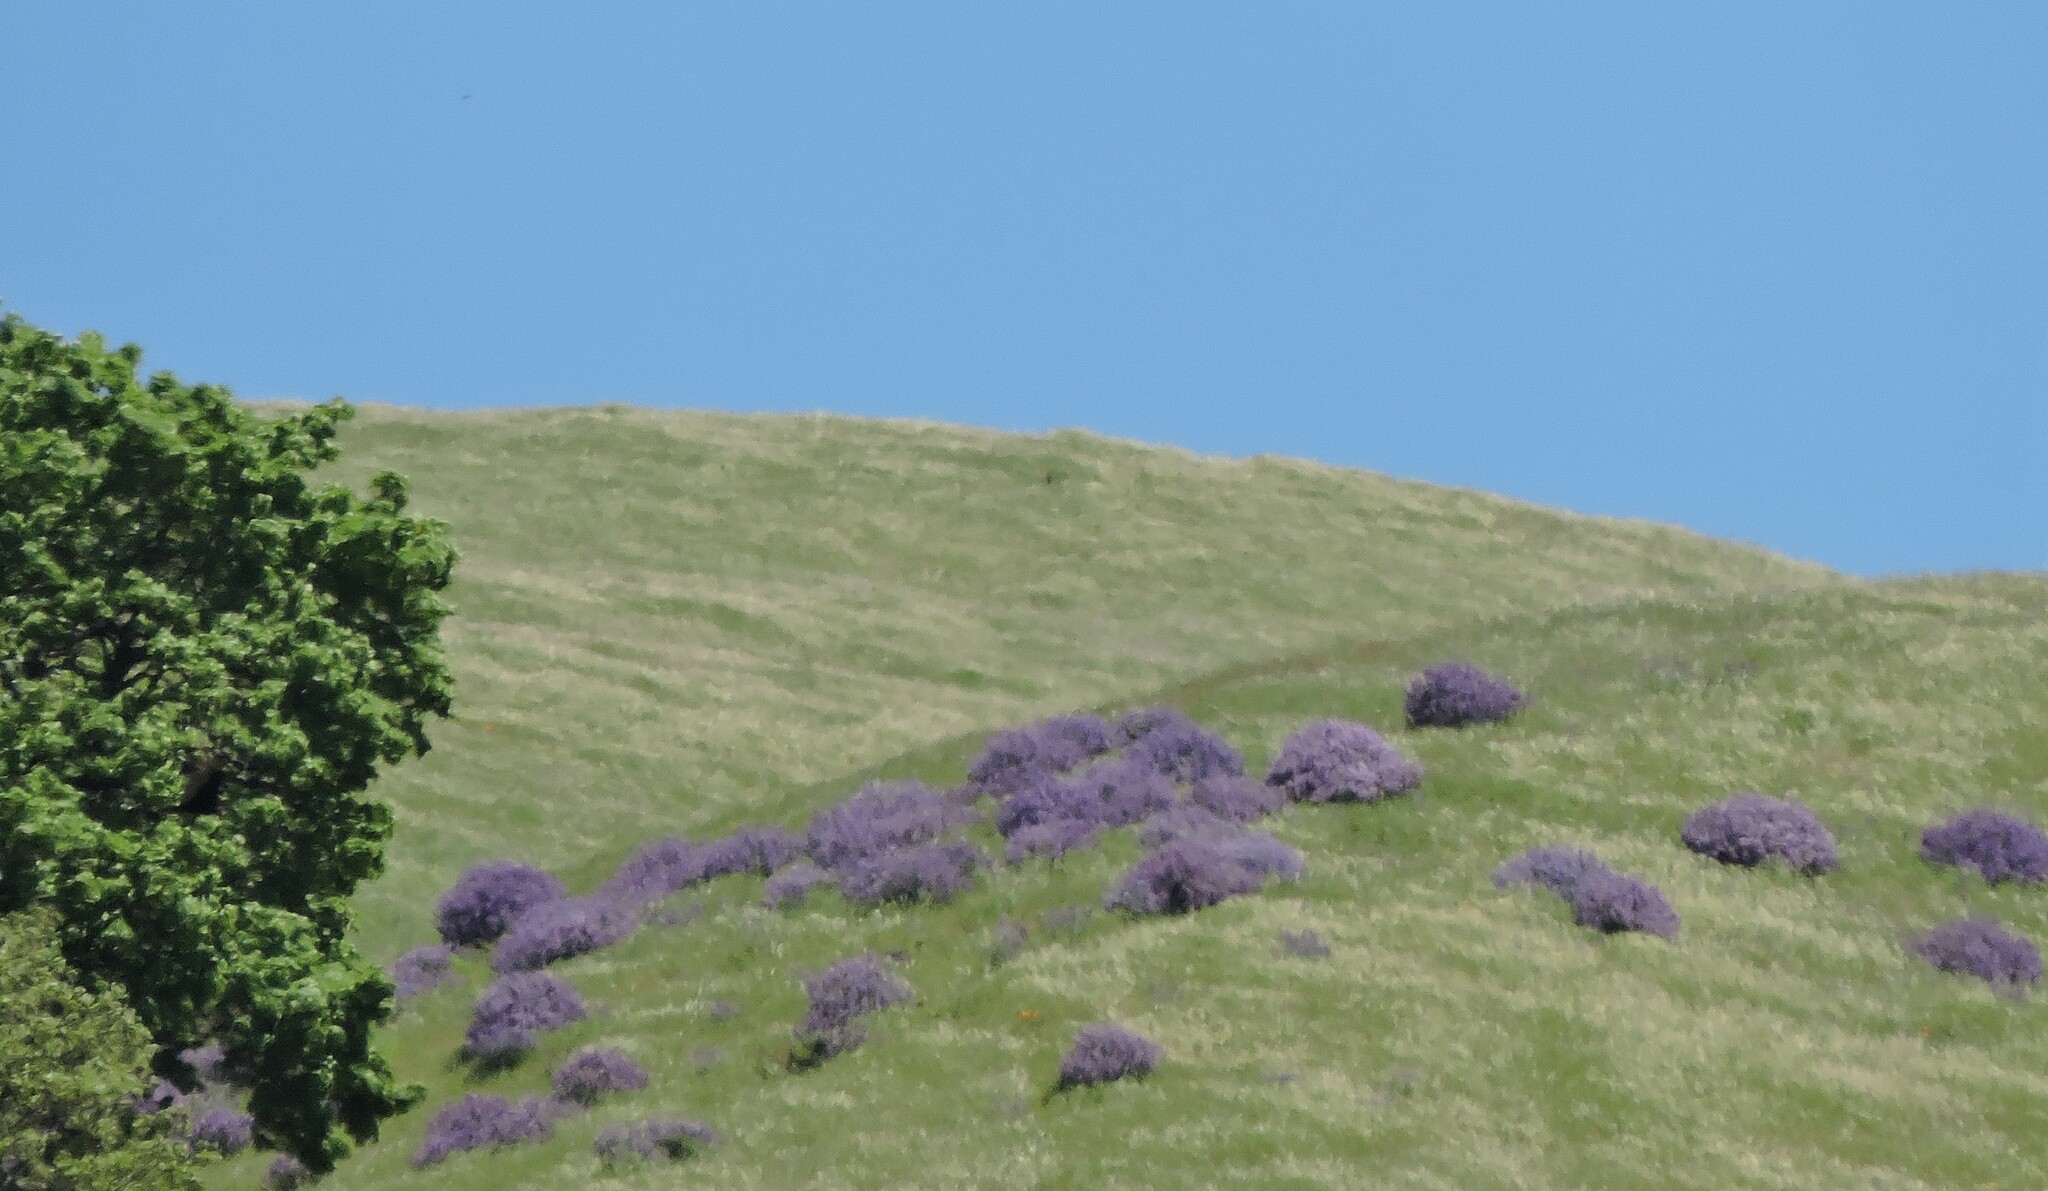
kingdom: Plantae
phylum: Tracheophyta
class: Magnoliopsida
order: Fabales
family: Fabaceae
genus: Lupinus
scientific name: Lupinus albifrons
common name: Foothill lupine
